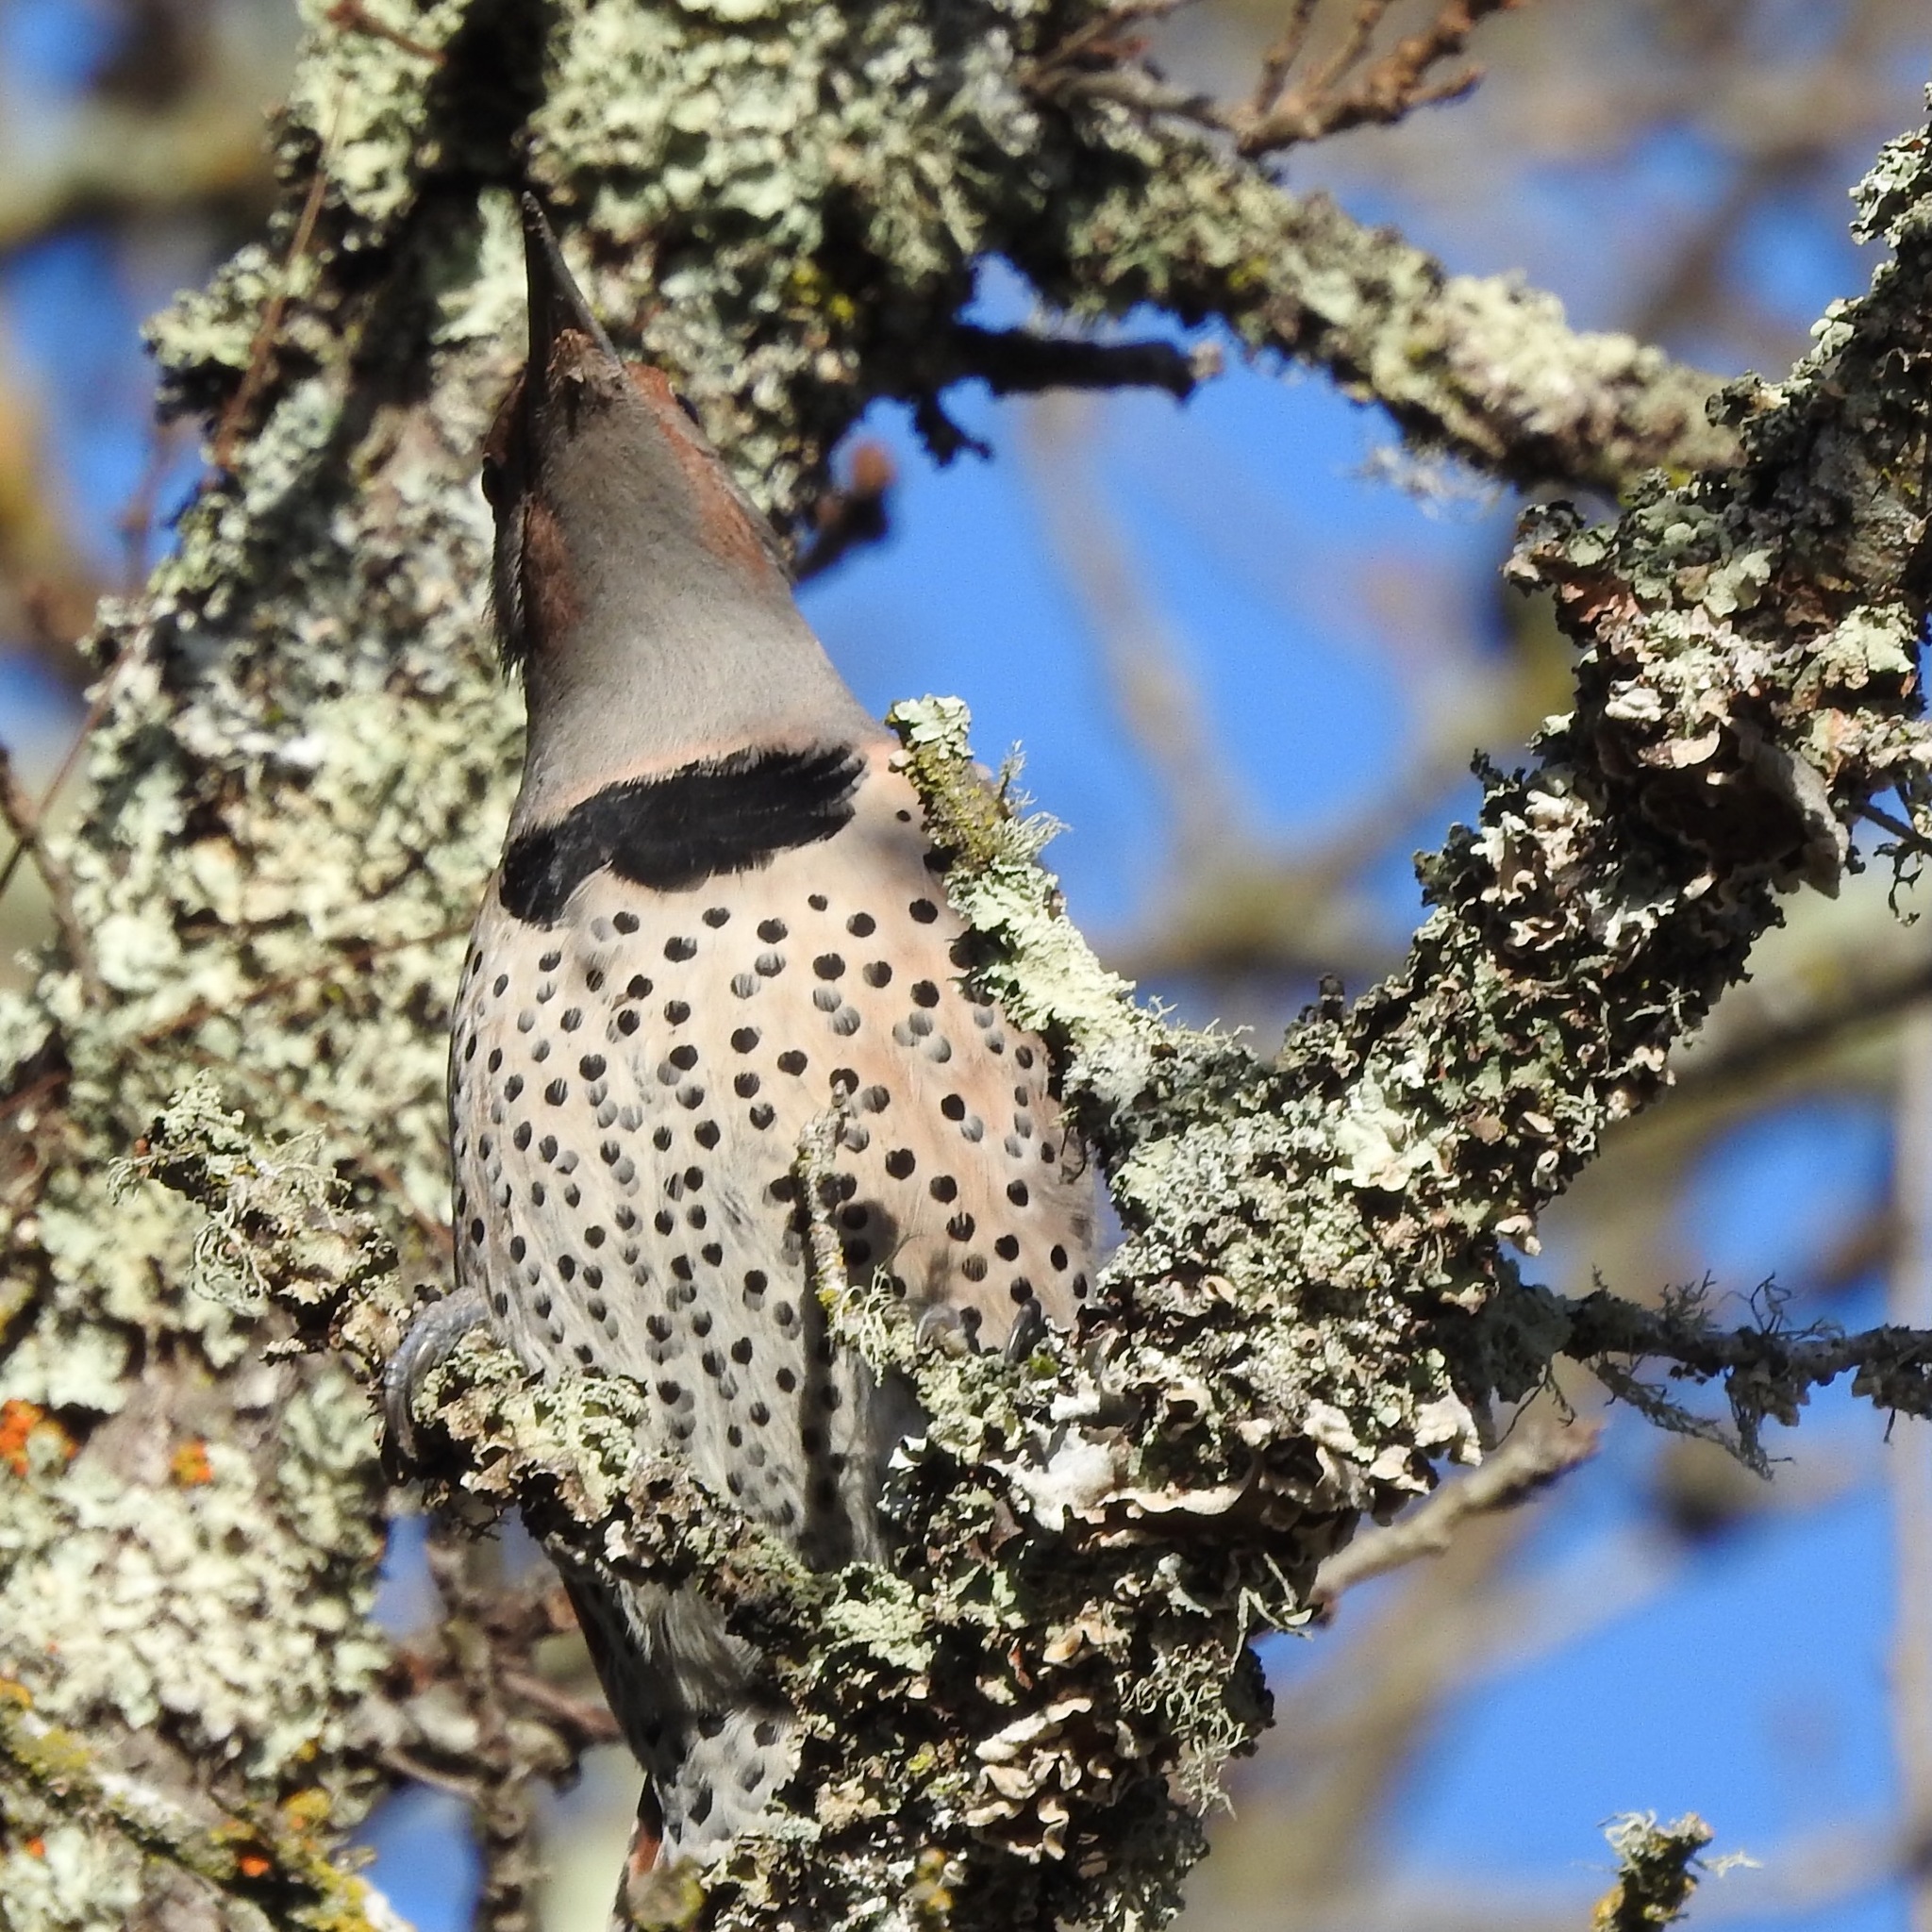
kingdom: Animalia
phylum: Chordata
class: Aves
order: Piciformes
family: Picidae
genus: Colaptes
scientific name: Colaptes auratus
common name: Northern flicker
